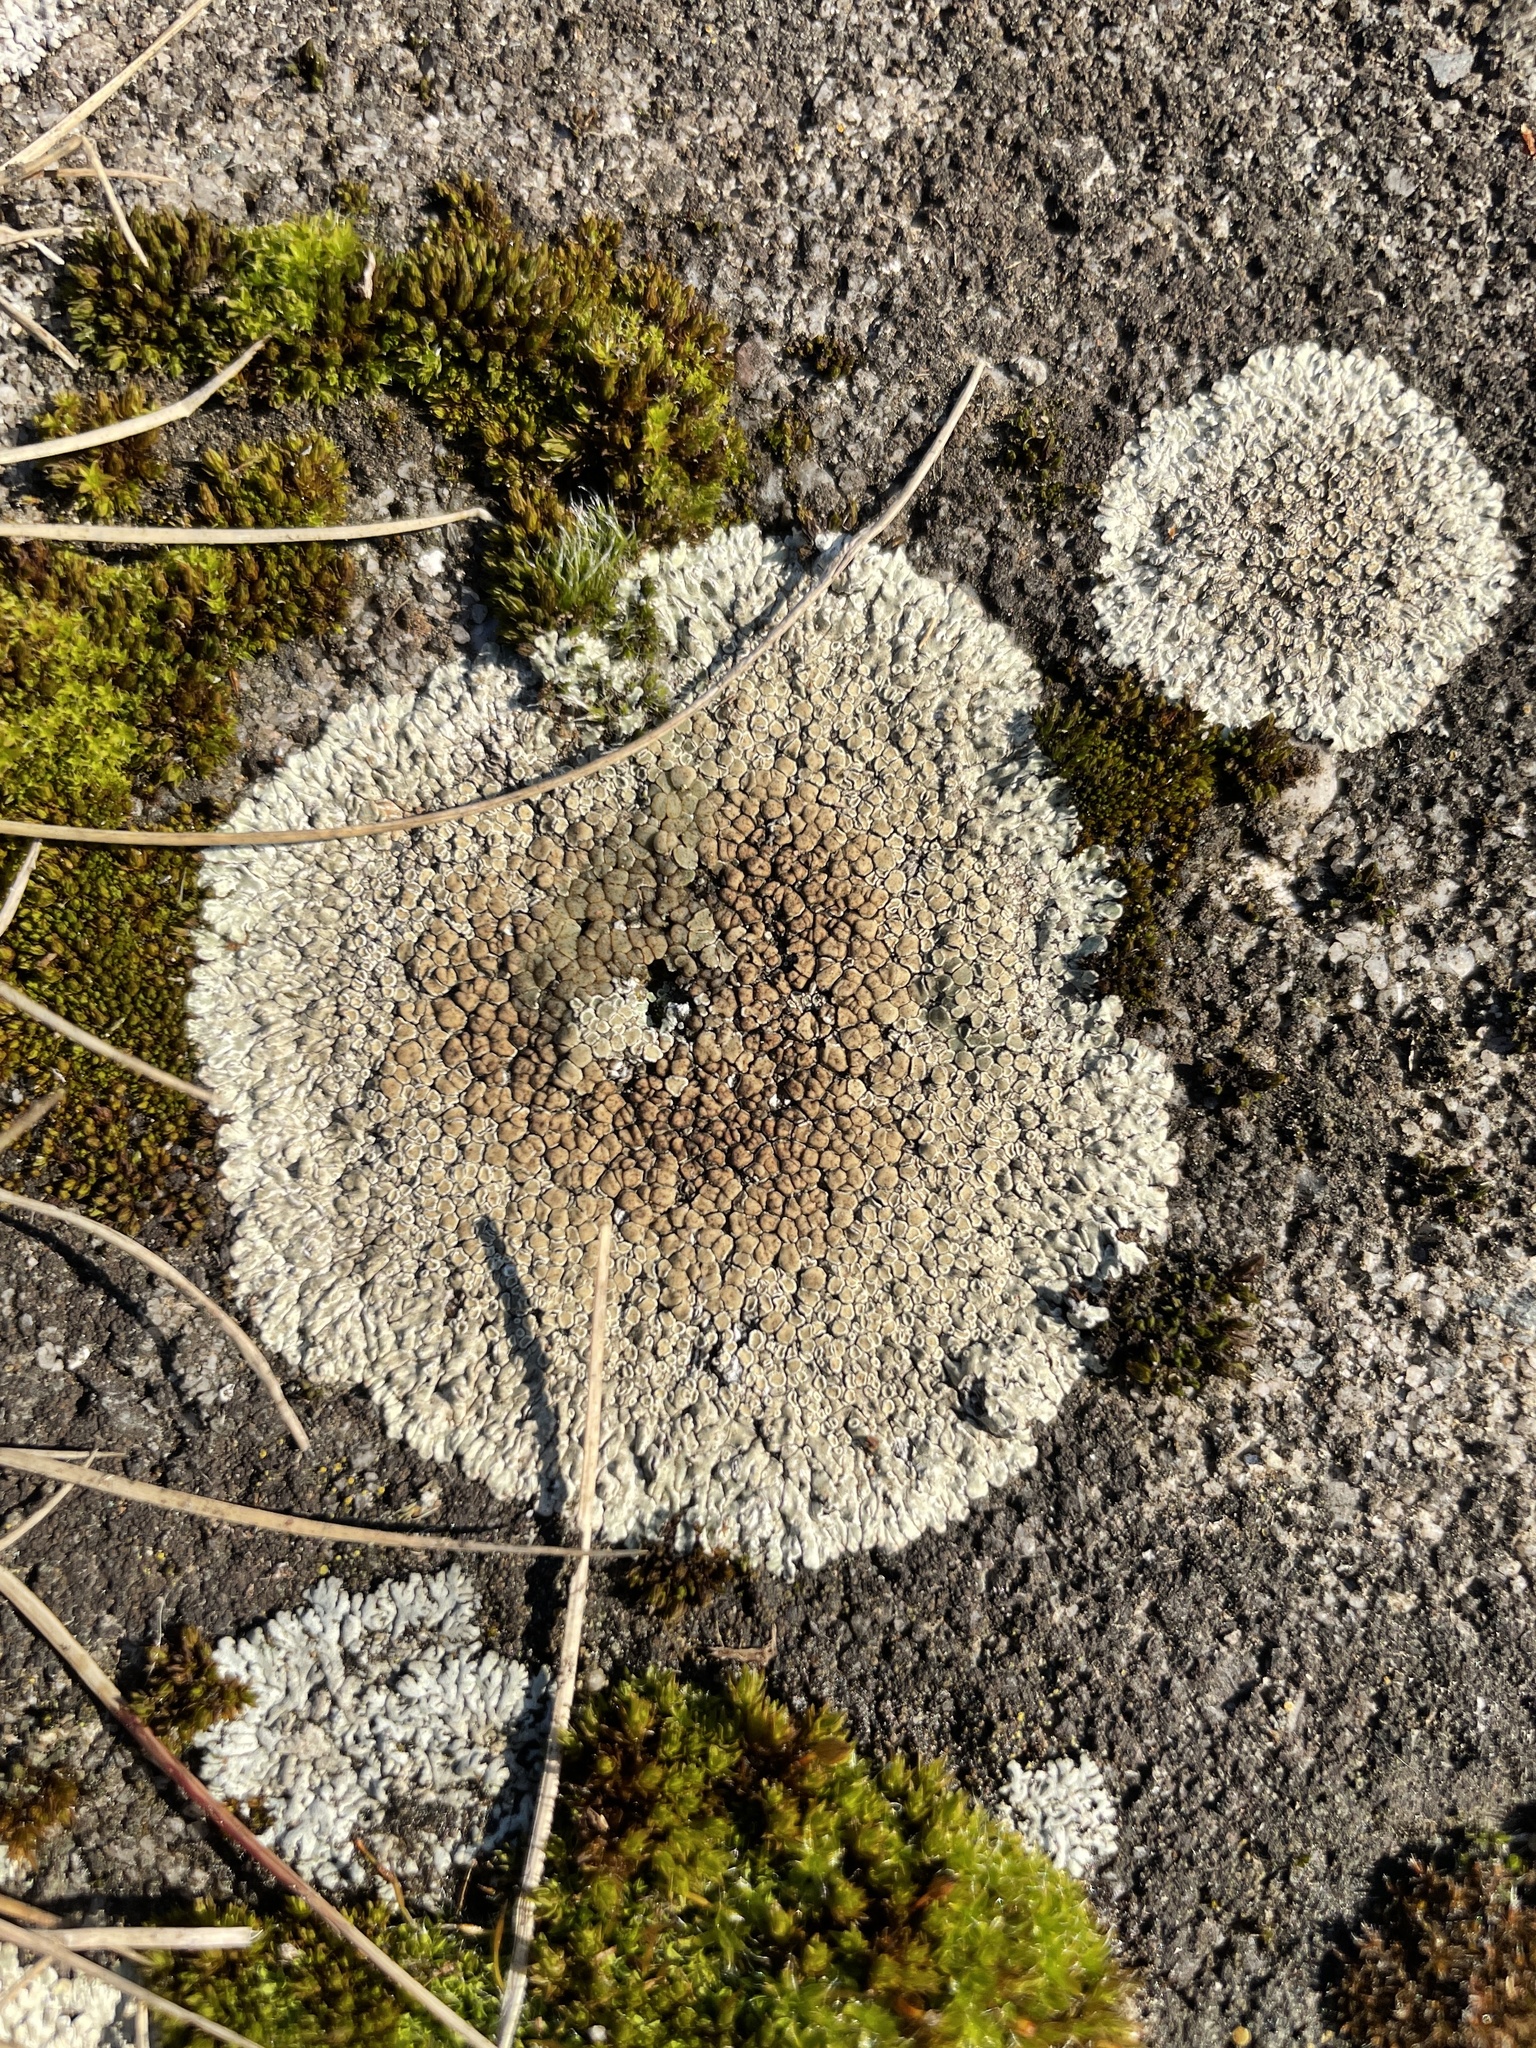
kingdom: Fungi
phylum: Ascomycota
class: Lecanoromycetes
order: Lecanorales
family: Lecanoraceae
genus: Protoparmeliopsis
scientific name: Protoparmeliopsis muralis
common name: Stonewall rim lichen
